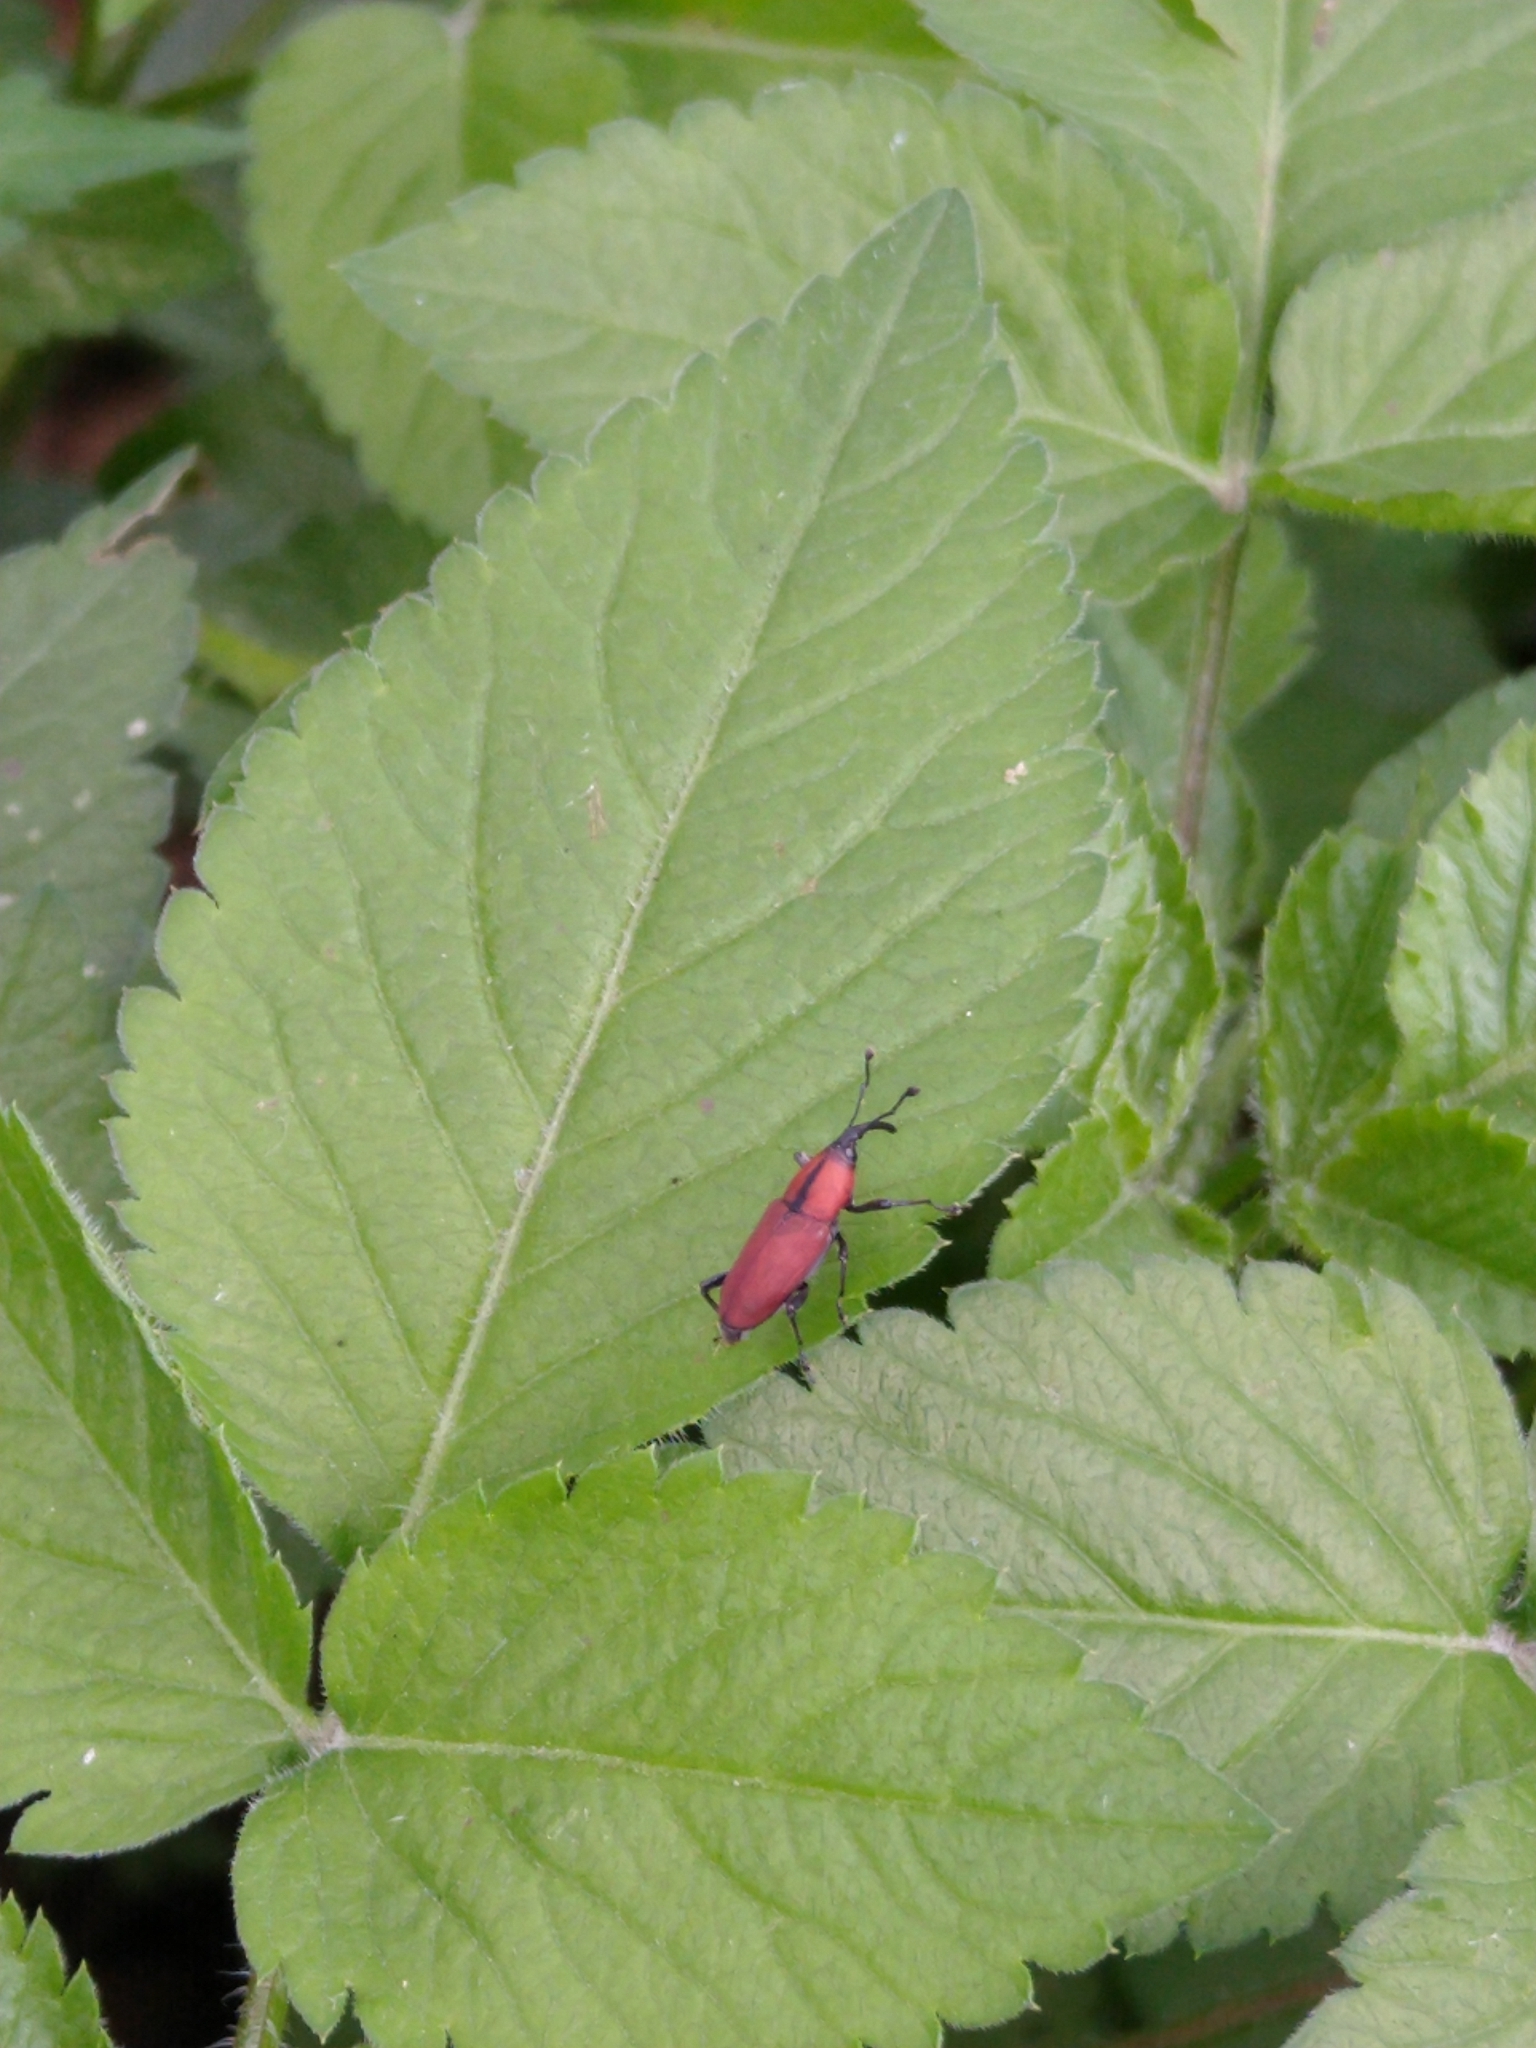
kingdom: Animalia
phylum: Arthropoda
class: Insecta
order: Coleoptera
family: Dryophthoridae
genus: Rhodobaenus
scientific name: Rhodobaenus sanguineus
